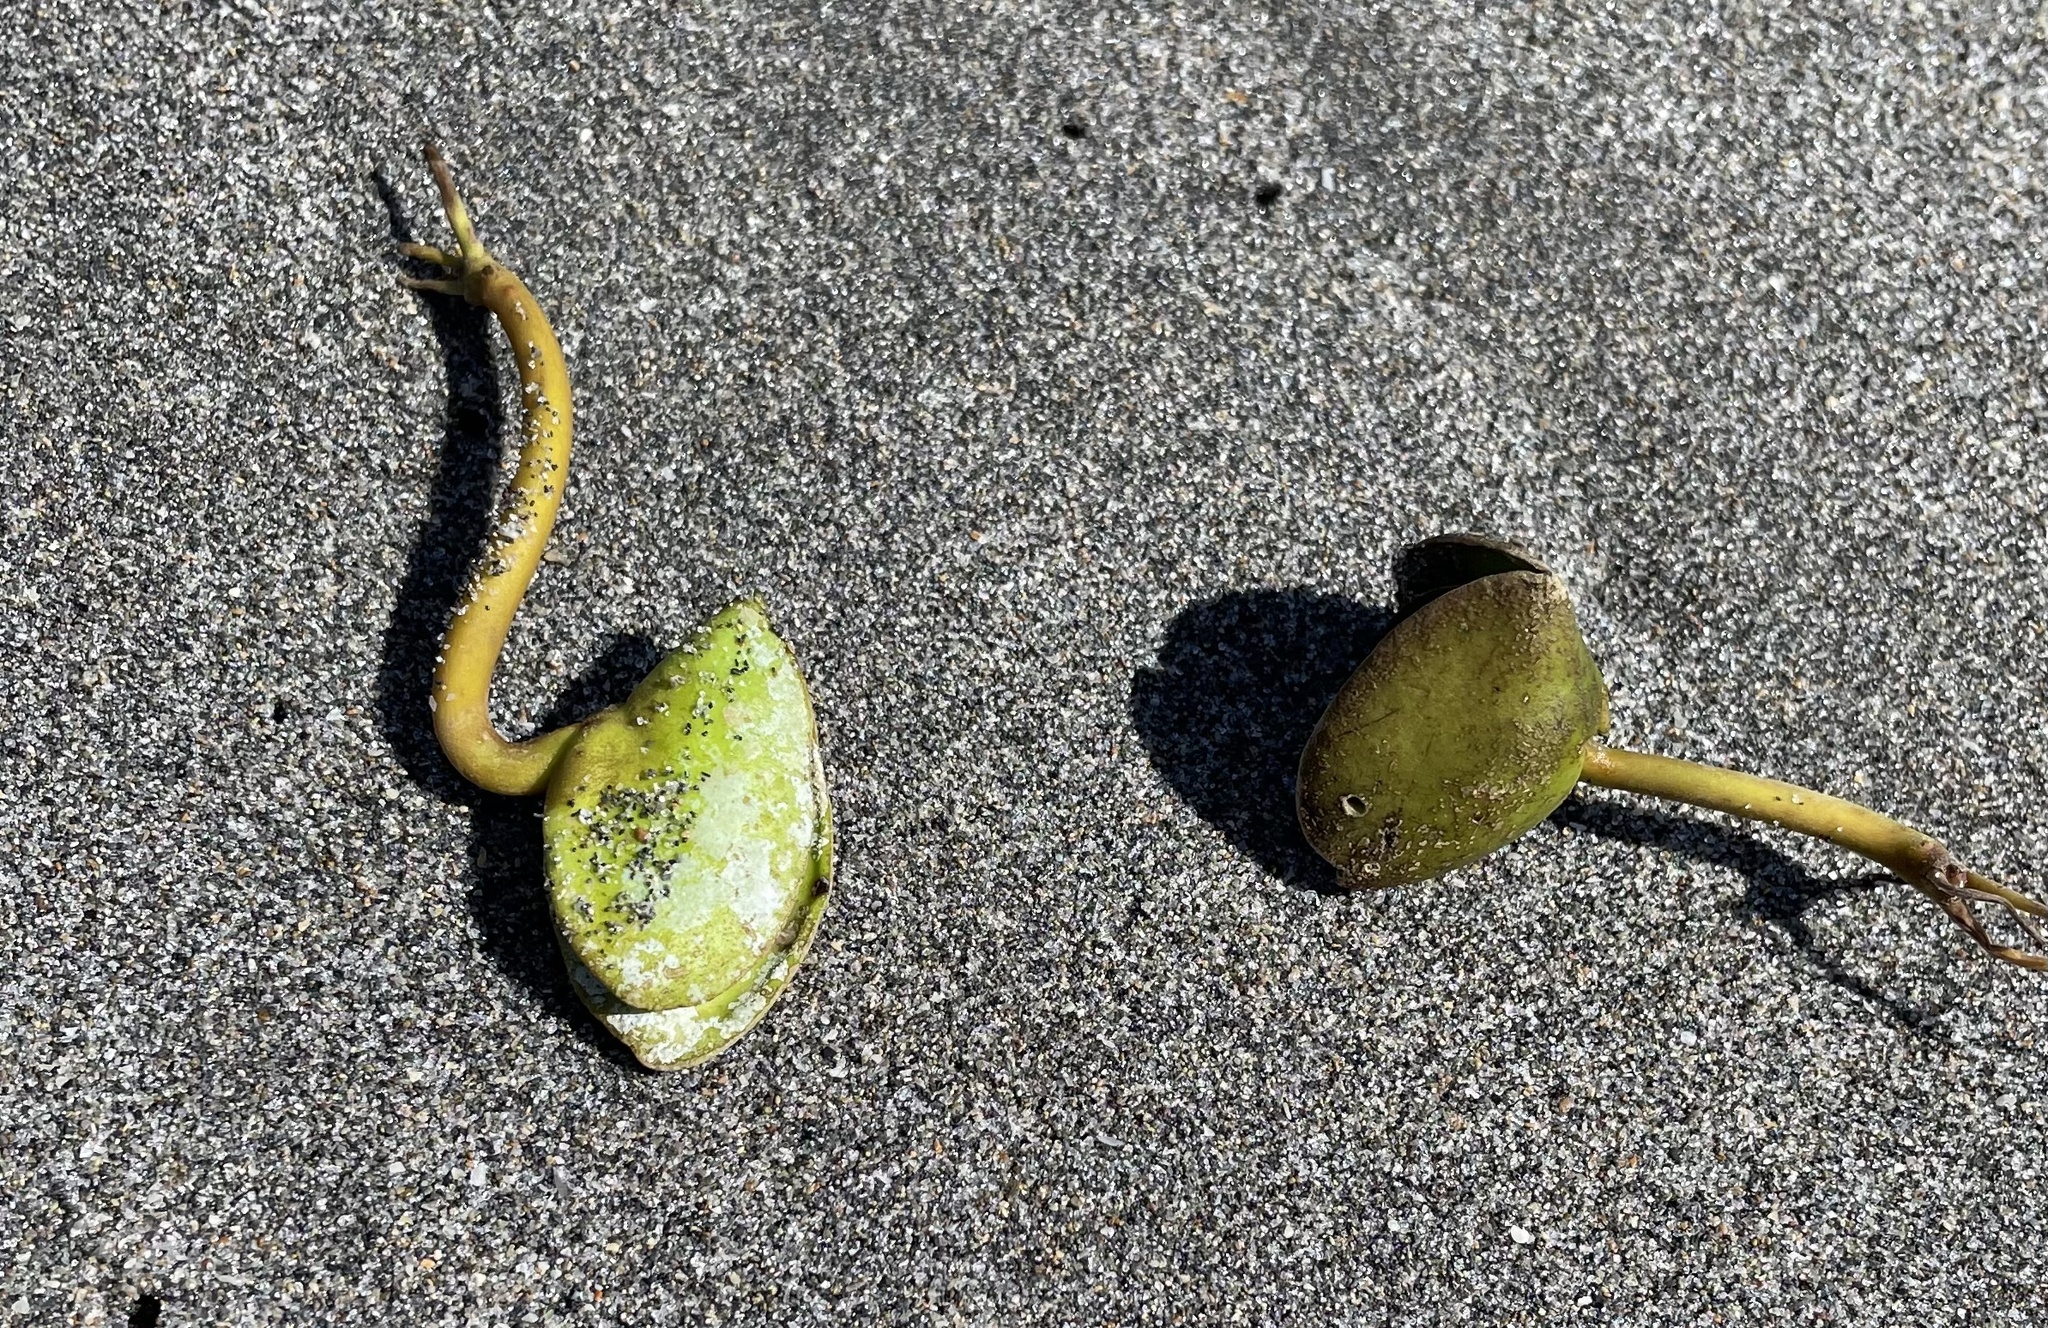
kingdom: Plantae
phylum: Tracheophyta
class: Magnoliopsida
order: Lamiales
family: Acanthaceae
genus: Avicennia
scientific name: Avicennia germinans
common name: Black mangrove
